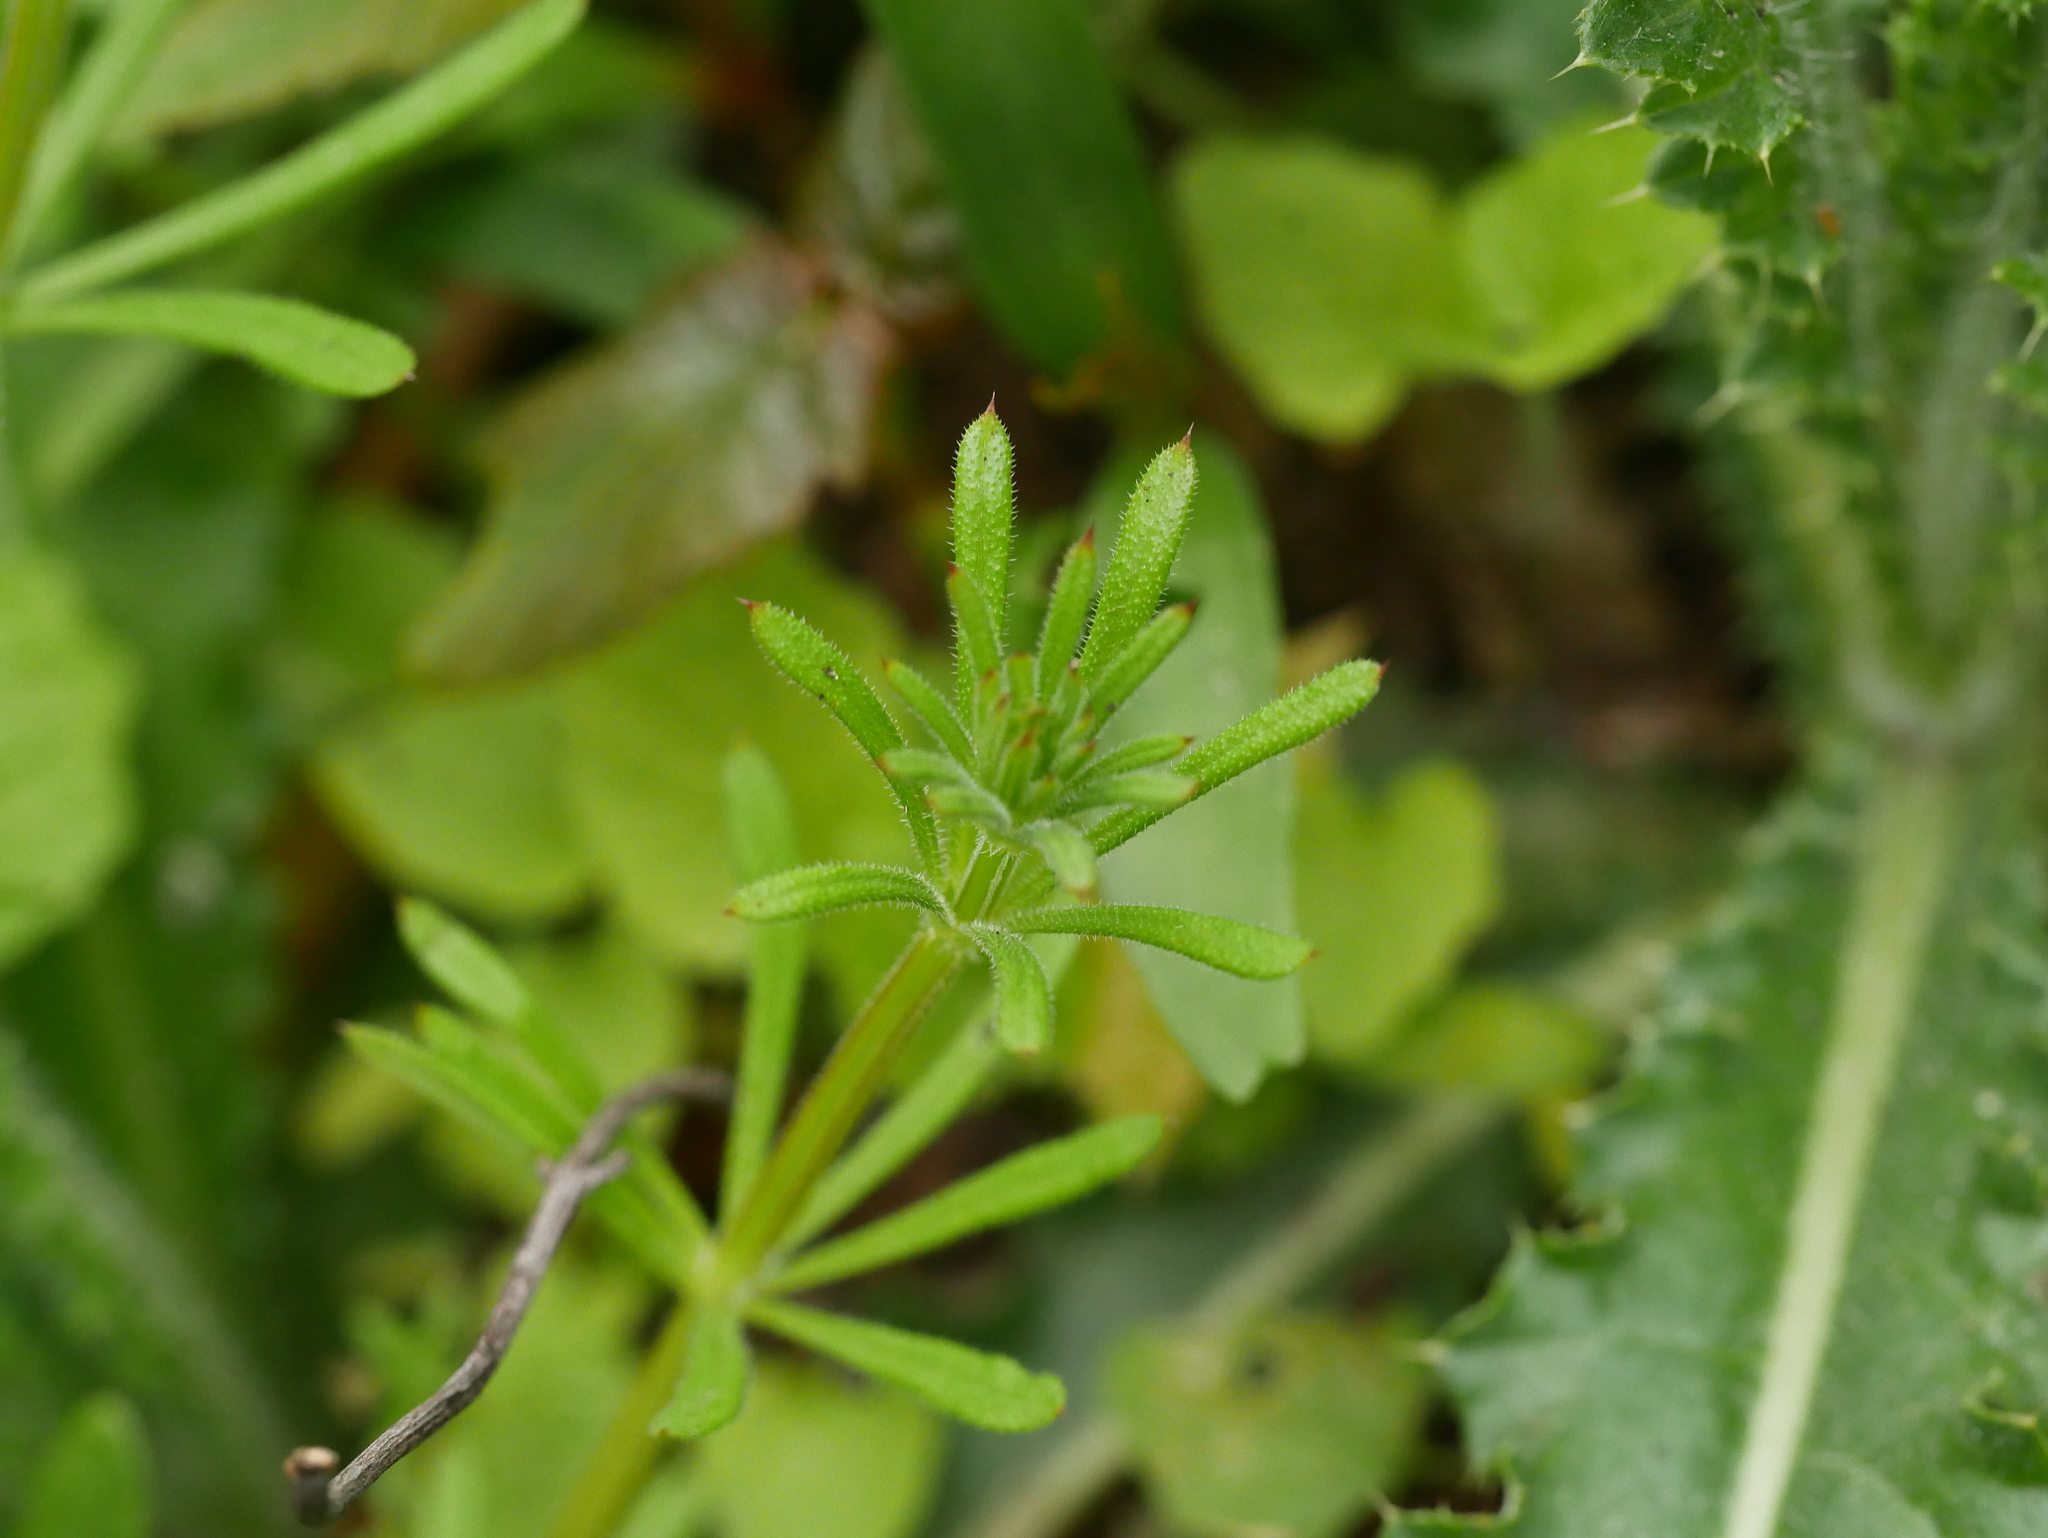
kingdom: Plantae
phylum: Tracheophyta
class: Magnoliopsida
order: Gentianales
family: Rubiaceae
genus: Galium
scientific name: Galium aparine
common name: Cleavers
